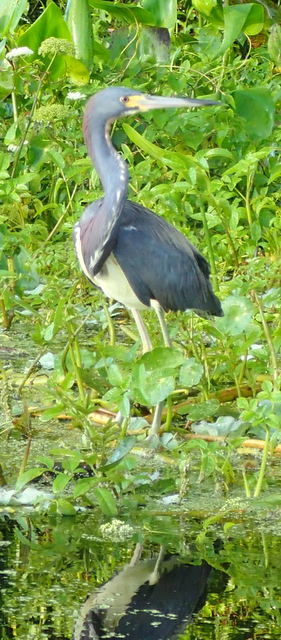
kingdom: Animalia
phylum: Chordata
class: Aves
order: Pelecaniformes
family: Ardeidae
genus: Egretta
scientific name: Egretta tricolor
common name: Tricolored heron
